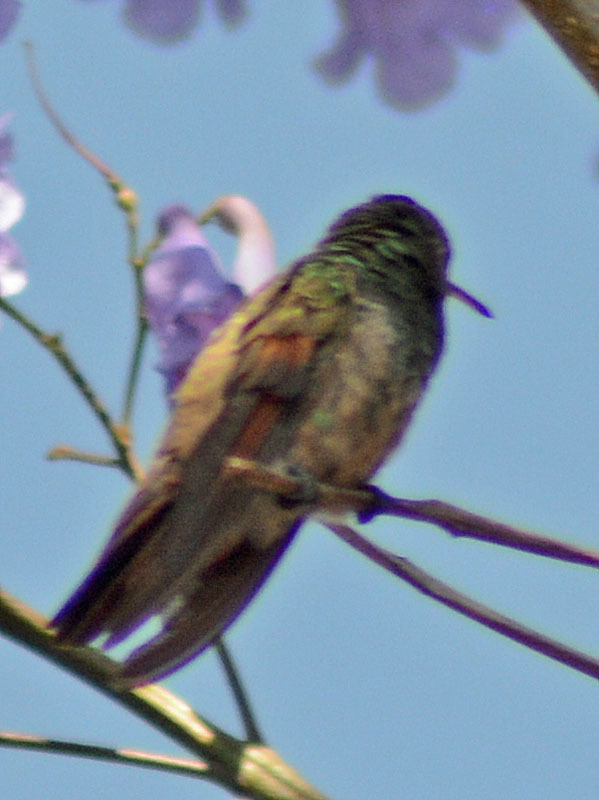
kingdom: Animalia
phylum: Chordata
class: Aves
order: Apodiformes
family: Trochilidae
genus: Saucerottia
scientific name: Saucerottia beryllina
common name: Berylline hummingbird
